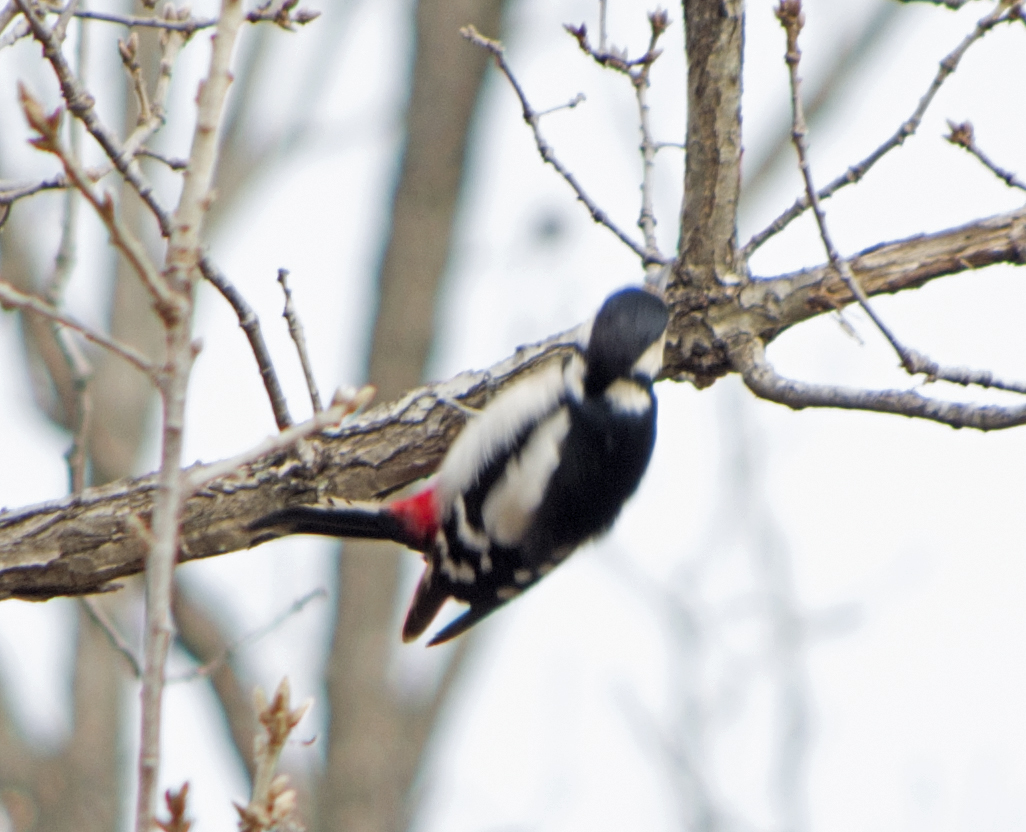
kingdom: Animalia
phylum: Chordata
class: Aves
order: Piciformes
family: Picidae
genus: Dendrocopos
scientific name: Dendrocopos major
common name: Great spotted woodpecker
